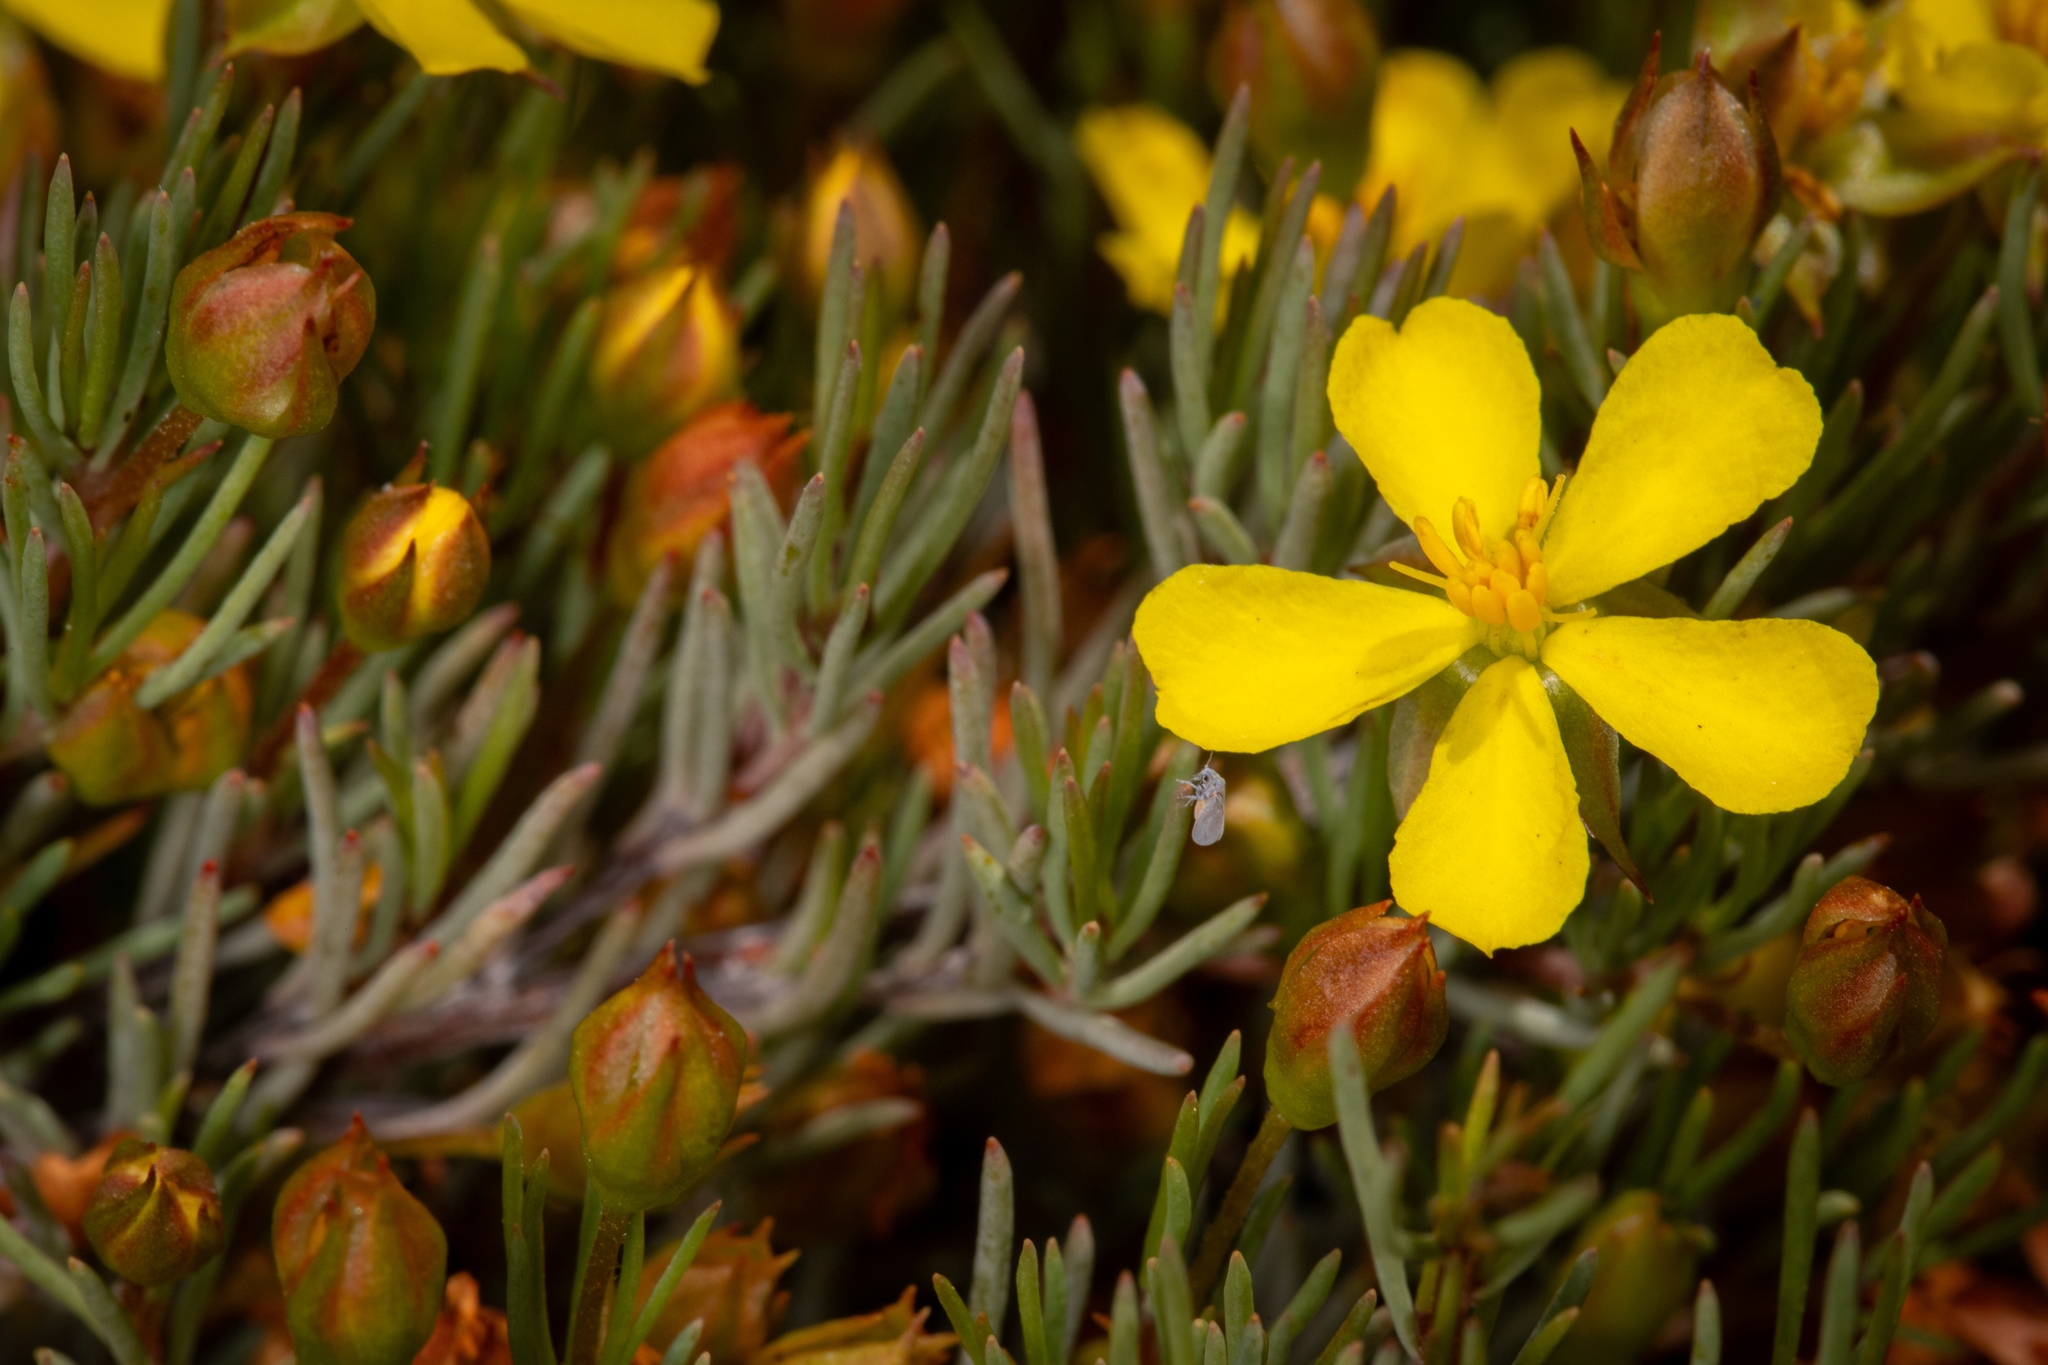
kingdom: Plantae
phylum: Tracheophyta
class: Magnoliopsida
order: Dilleniales
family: Dilleniaceae
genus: Hibbertia
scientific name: Hibbertia hibbertioides
